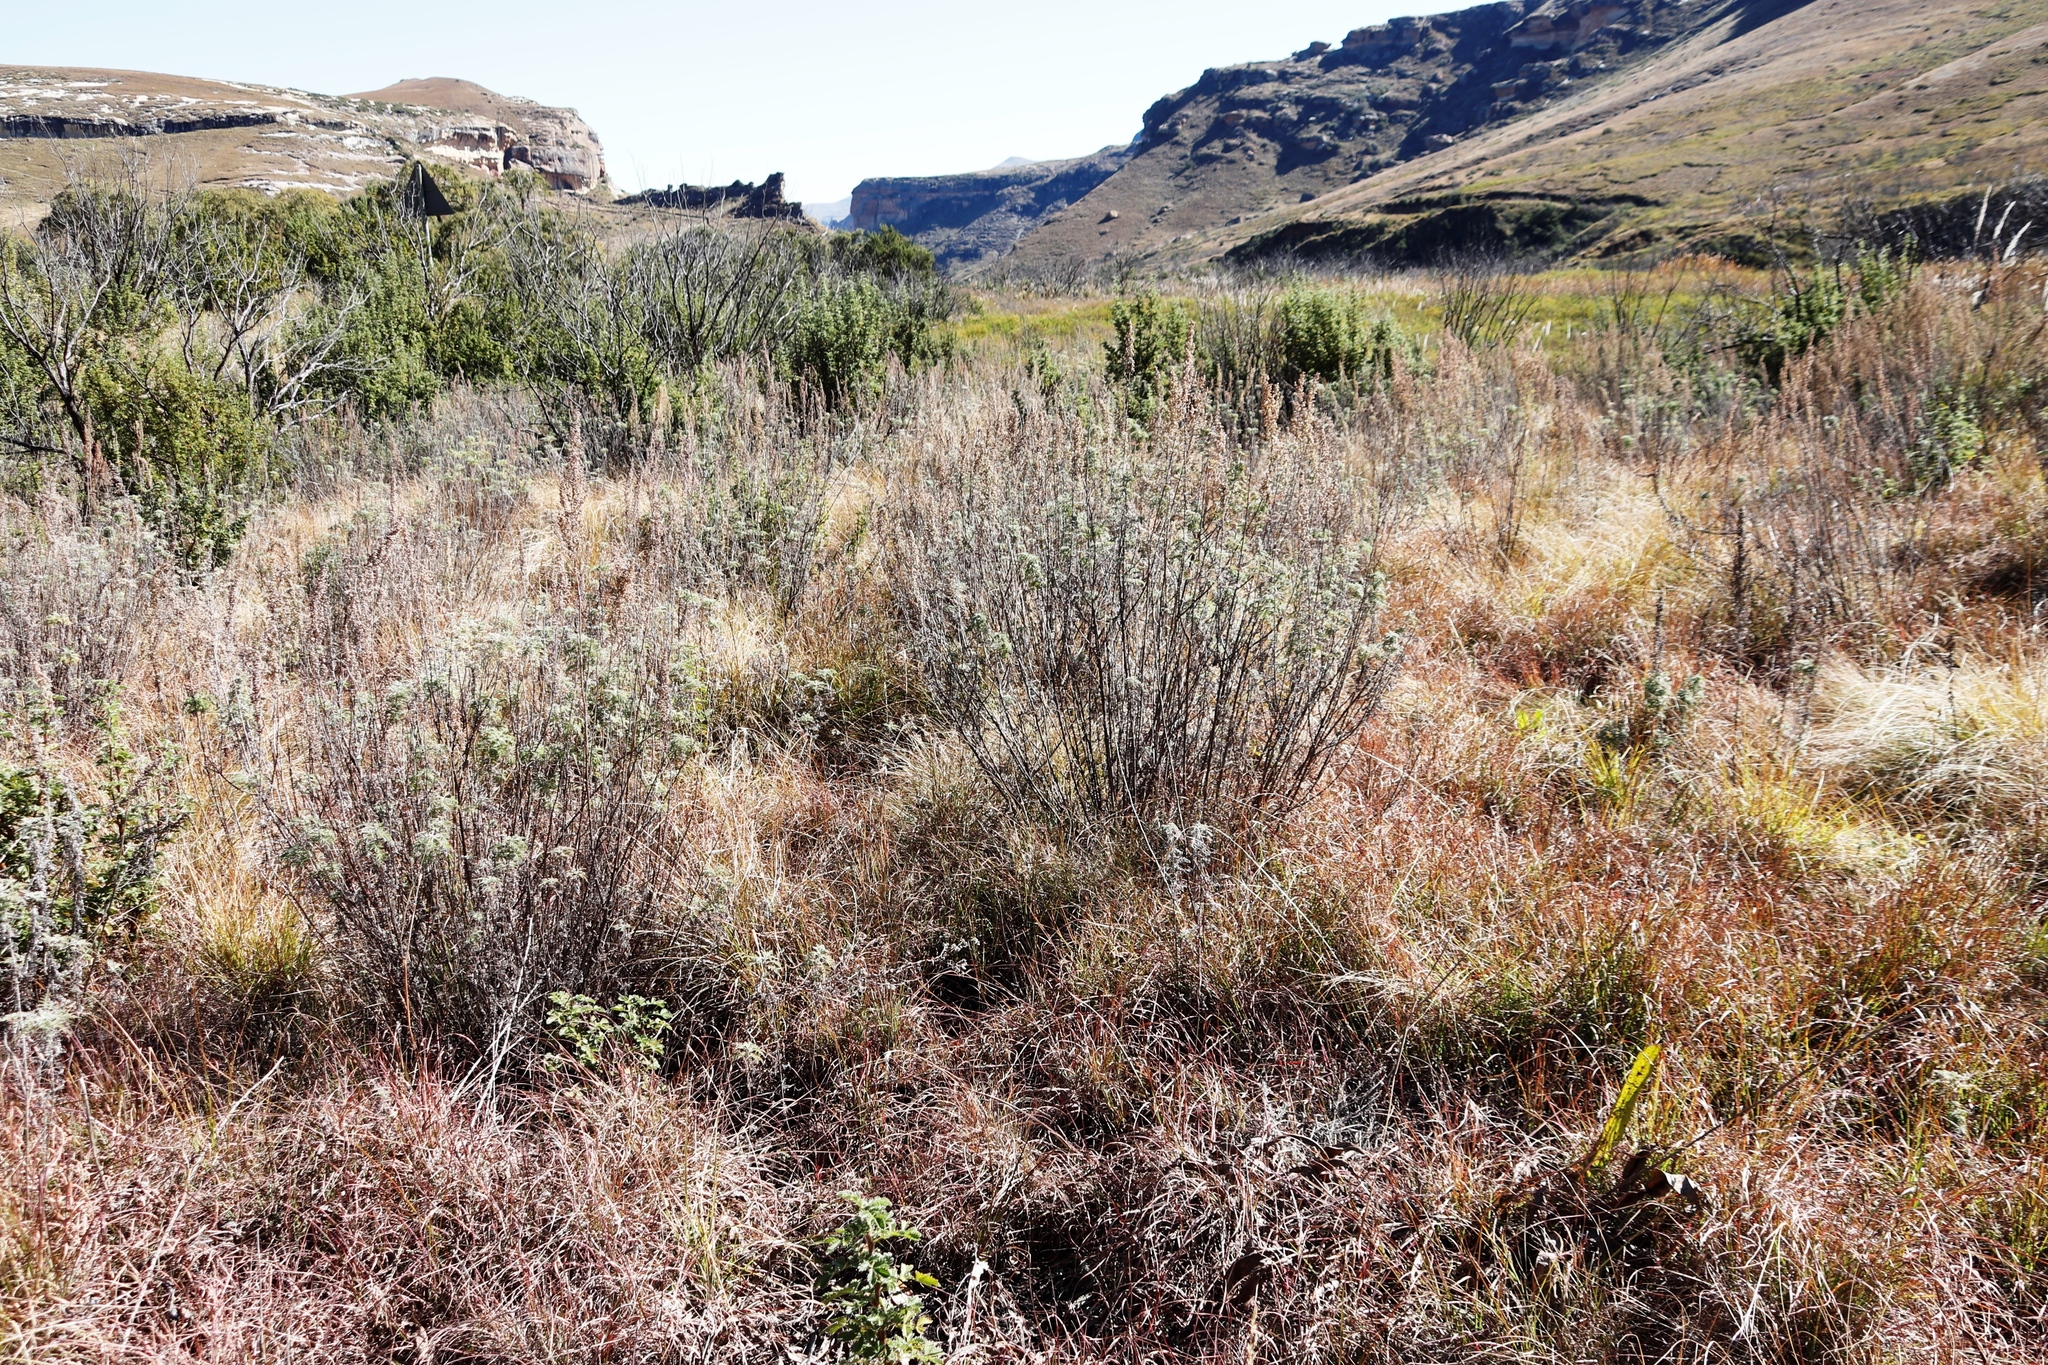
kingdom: Plantae
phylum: Tracheophyta
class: Magnoliopsida
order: Asterales
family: Asteraceae
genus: Artemisia
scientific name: Artemisia afra
